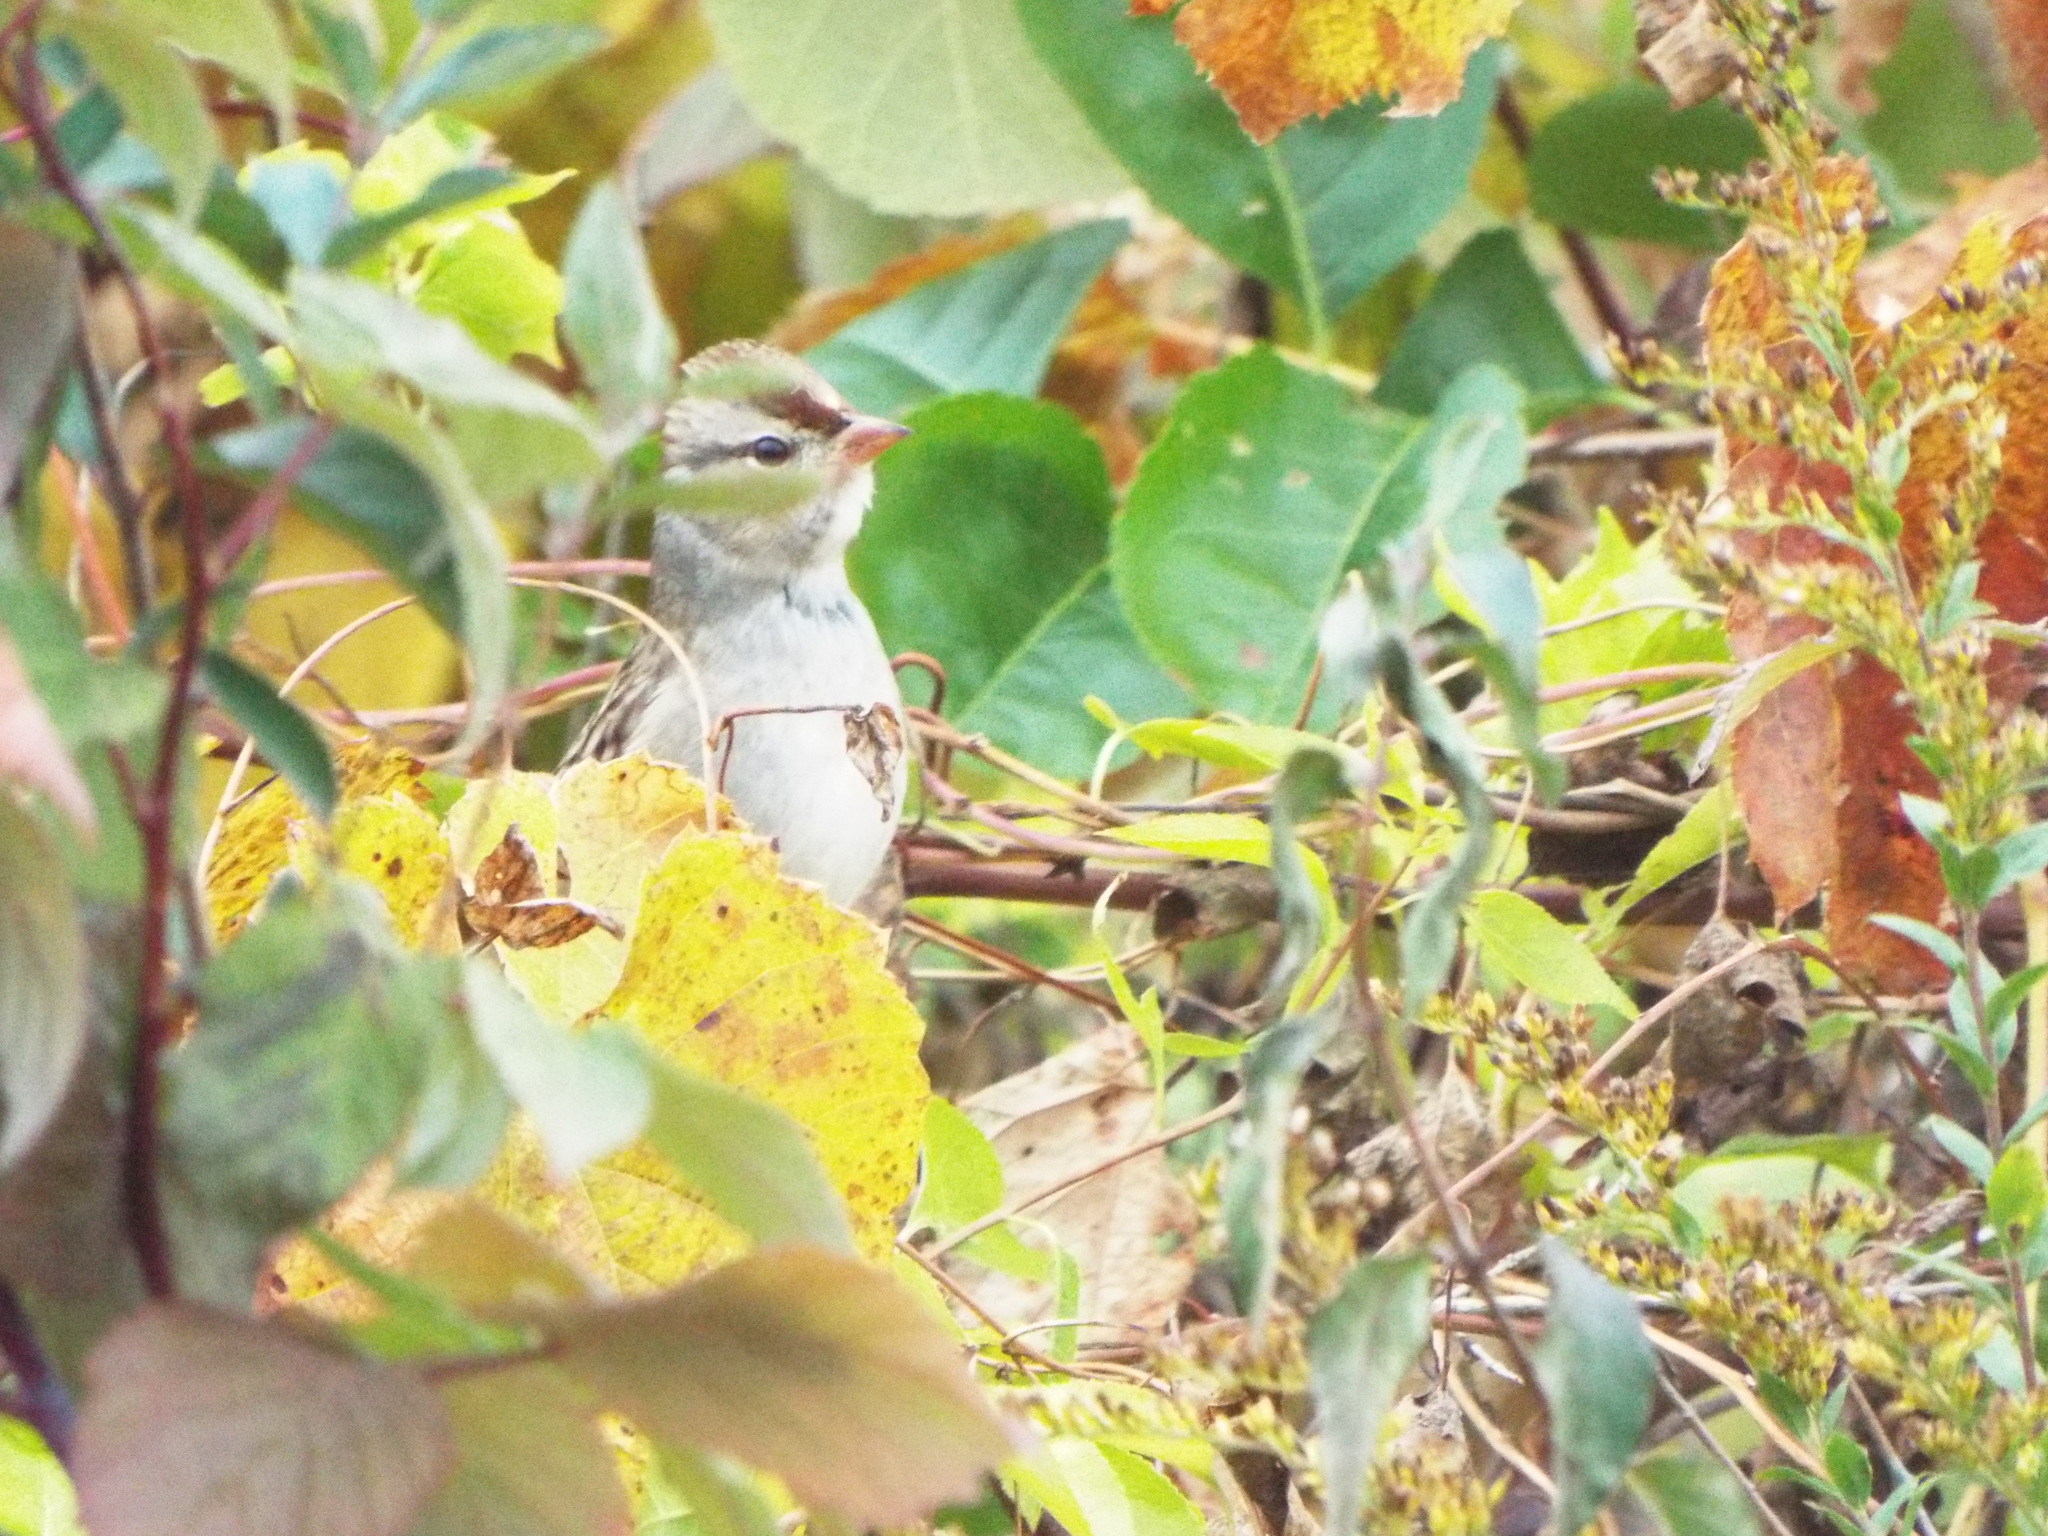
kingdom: Animalia
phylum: Chordata
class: Aves
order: Passeriformes
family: Passerellidae
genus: Zonotrichia
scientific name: Zonotrichia leucophrys
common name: White-crowned sparrow
